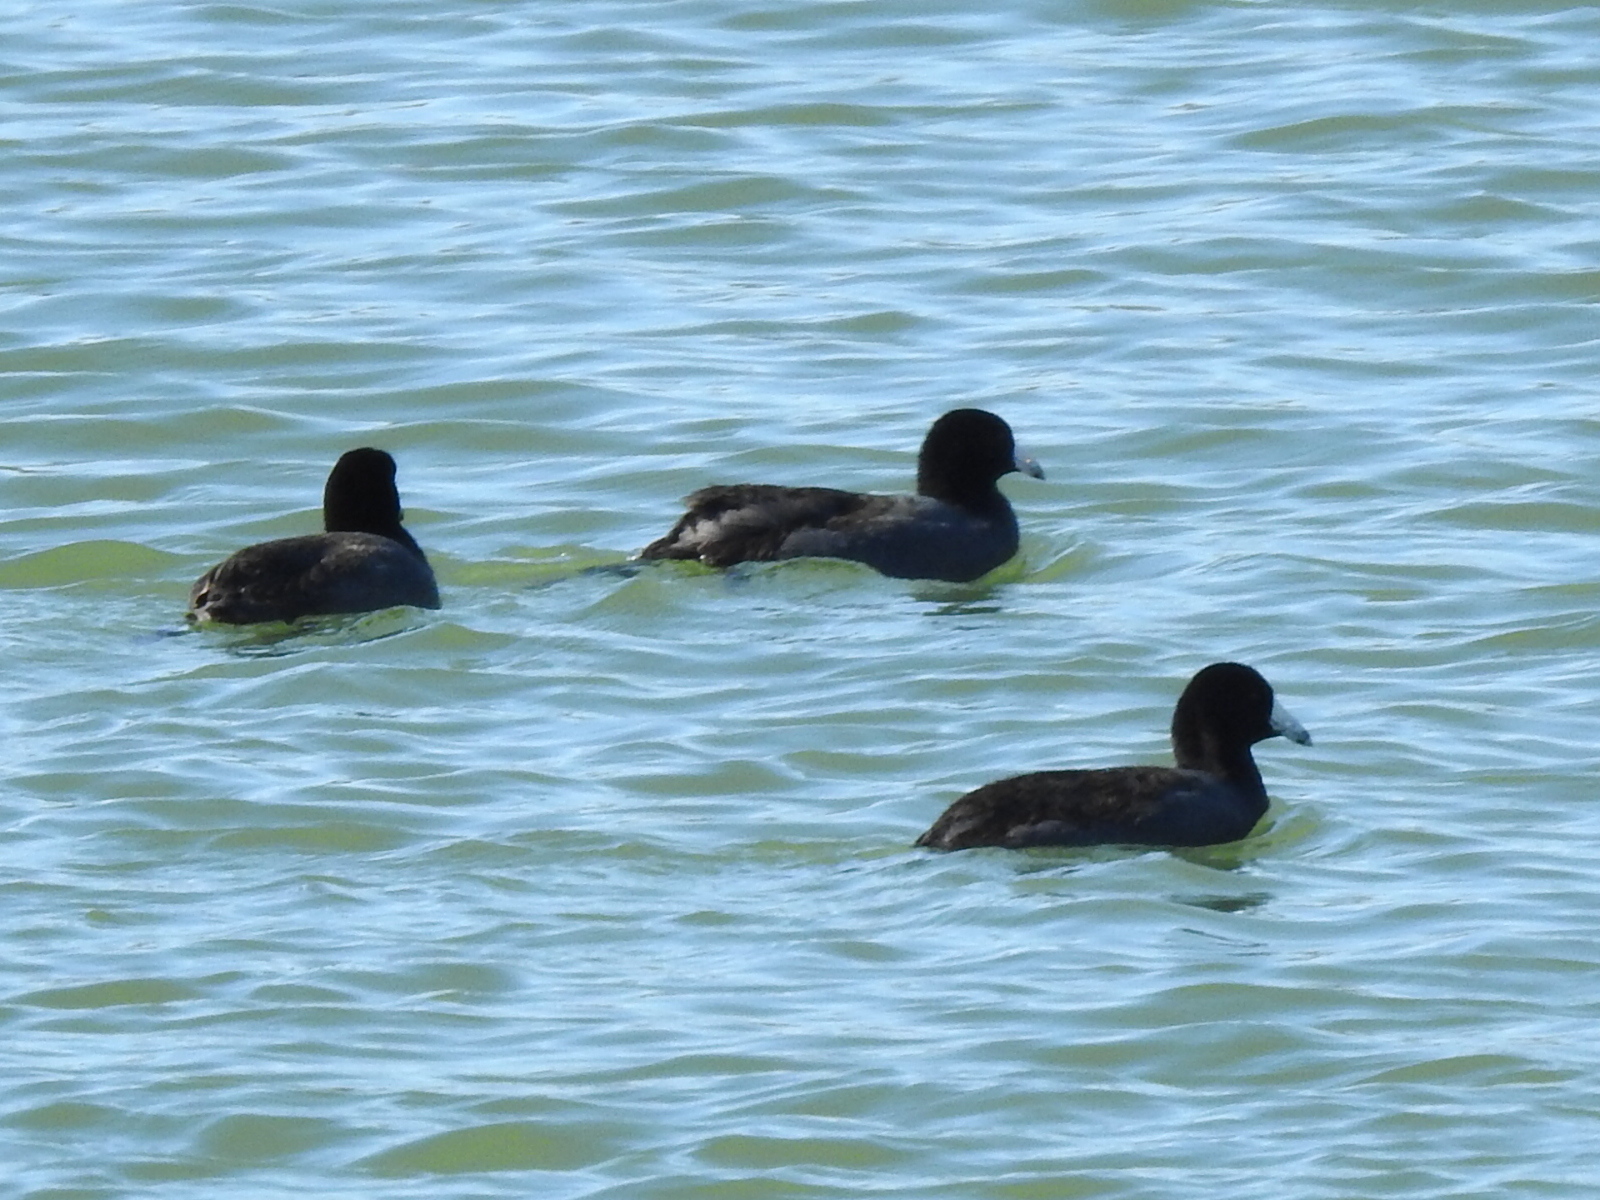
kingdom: Animalia
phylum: Chordata
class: Aves
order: Gruiformes
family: Rallidae
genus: Fulica
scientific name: Fulica americana
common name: American coot
